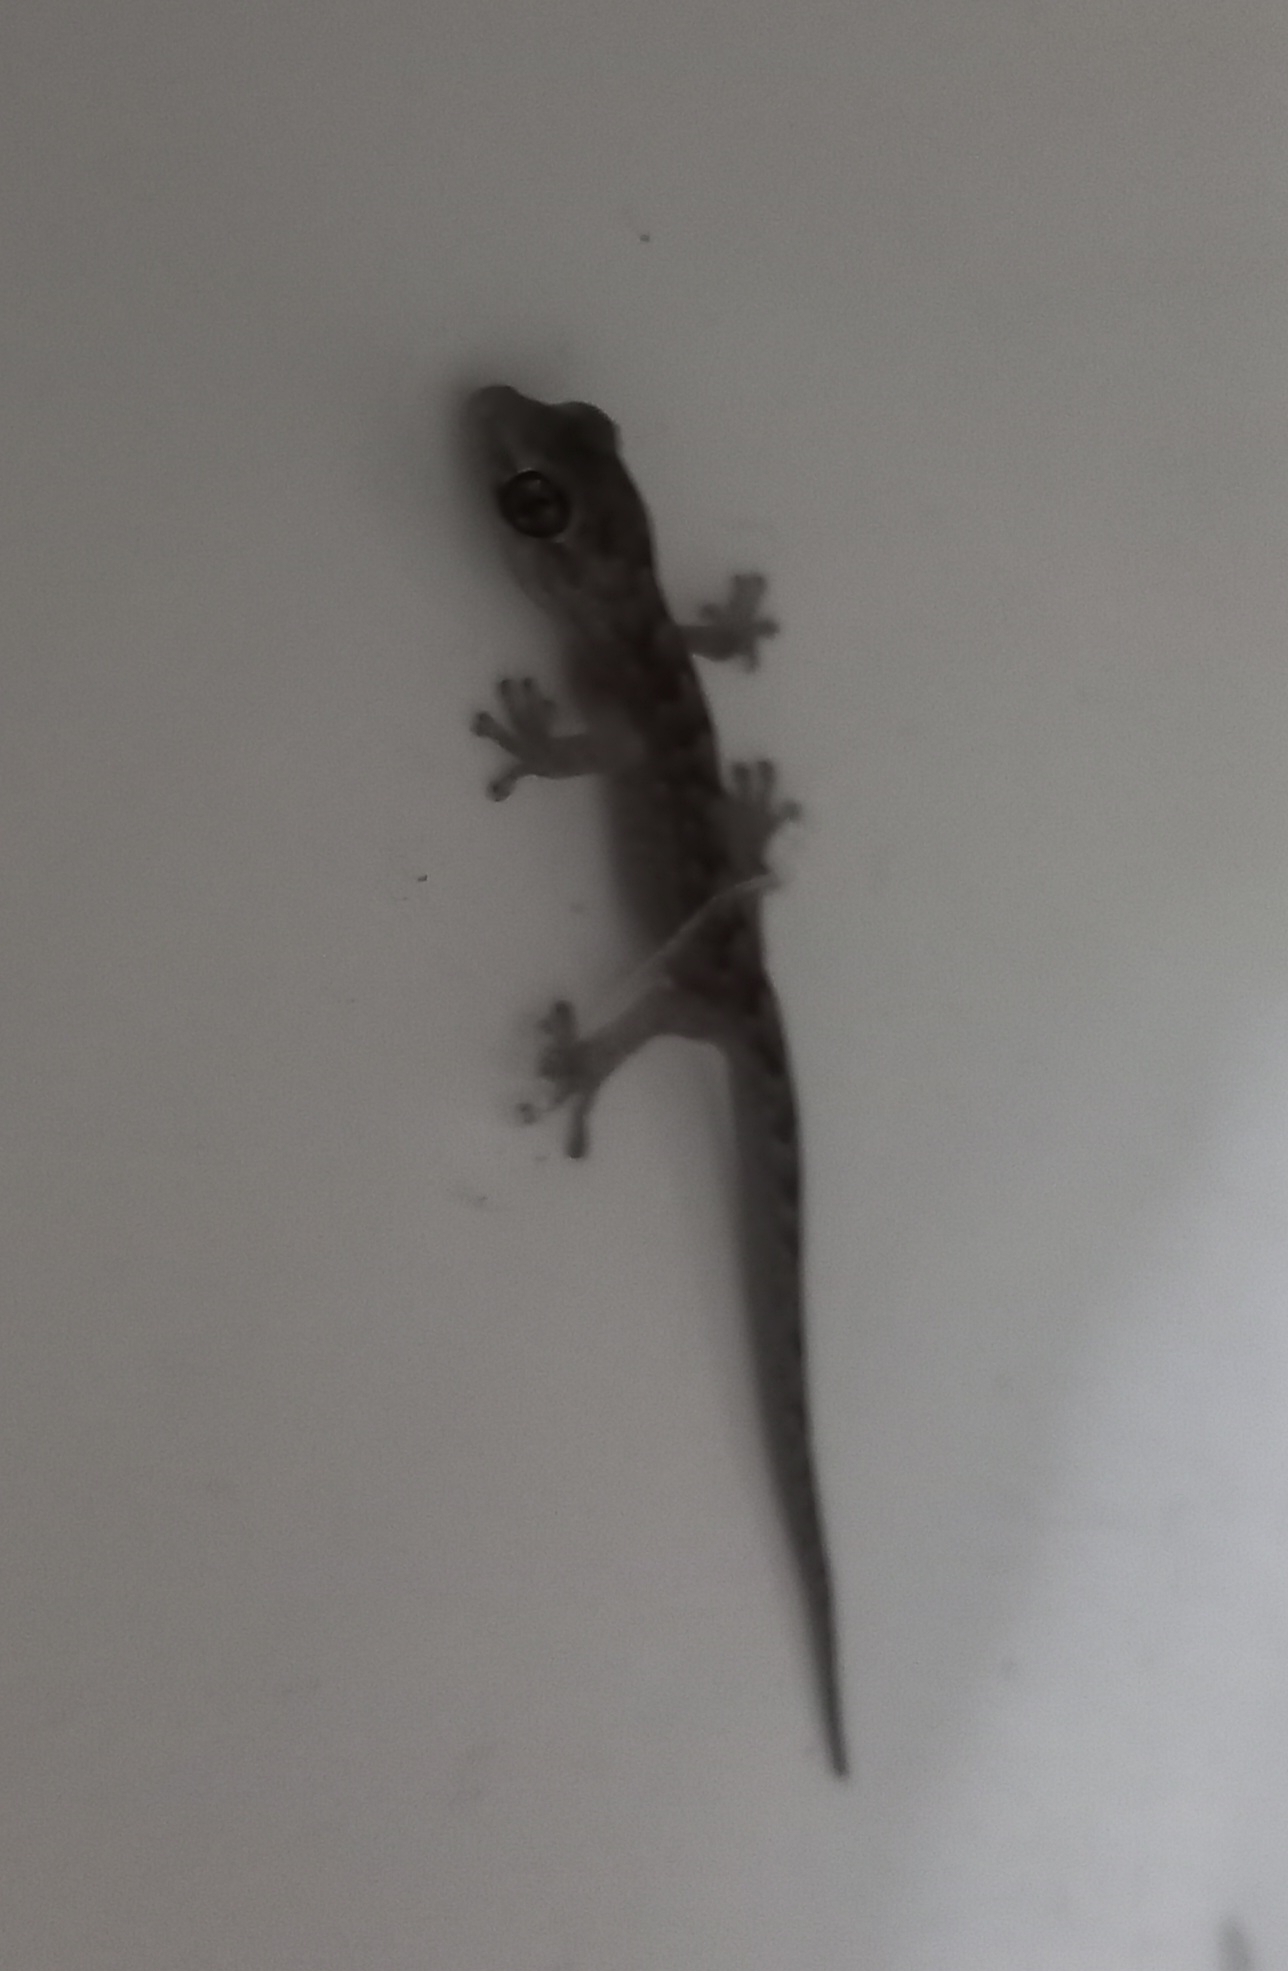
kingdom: Animalia
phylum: Chordata
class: Squamata
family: Gekkonidae
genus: Christinus
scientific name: Christinus marmoratus
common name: Marbled gecko
